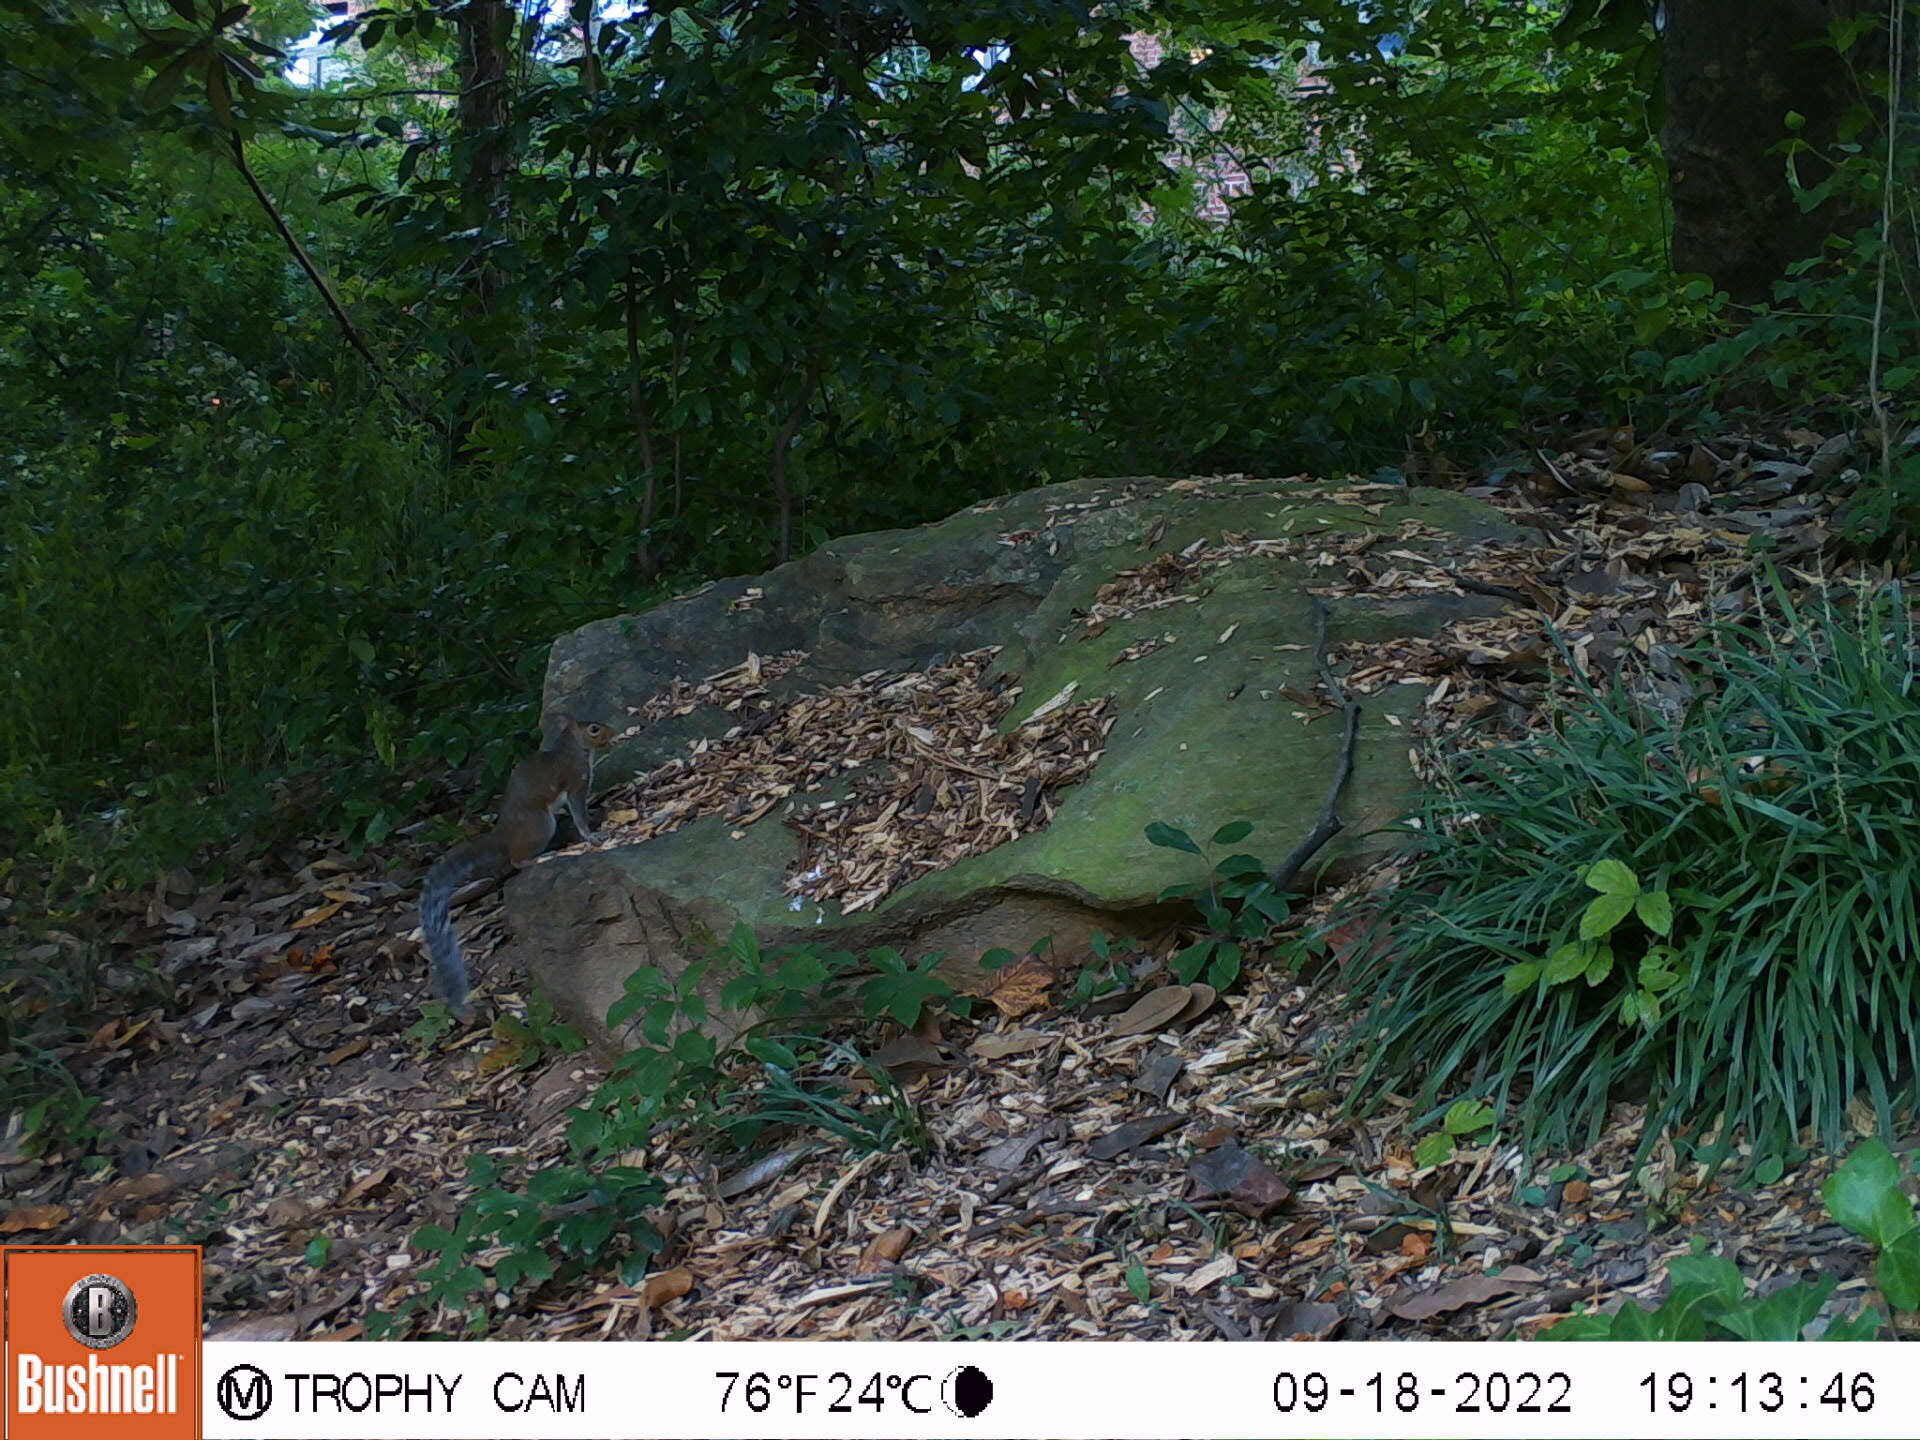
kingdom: Animalia
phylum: Chordata
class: Mammalia
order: Rodentia
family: Sciuridae
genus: Sciurus
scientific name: Sciurus carolinensis
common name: Eastern gray squirrel
